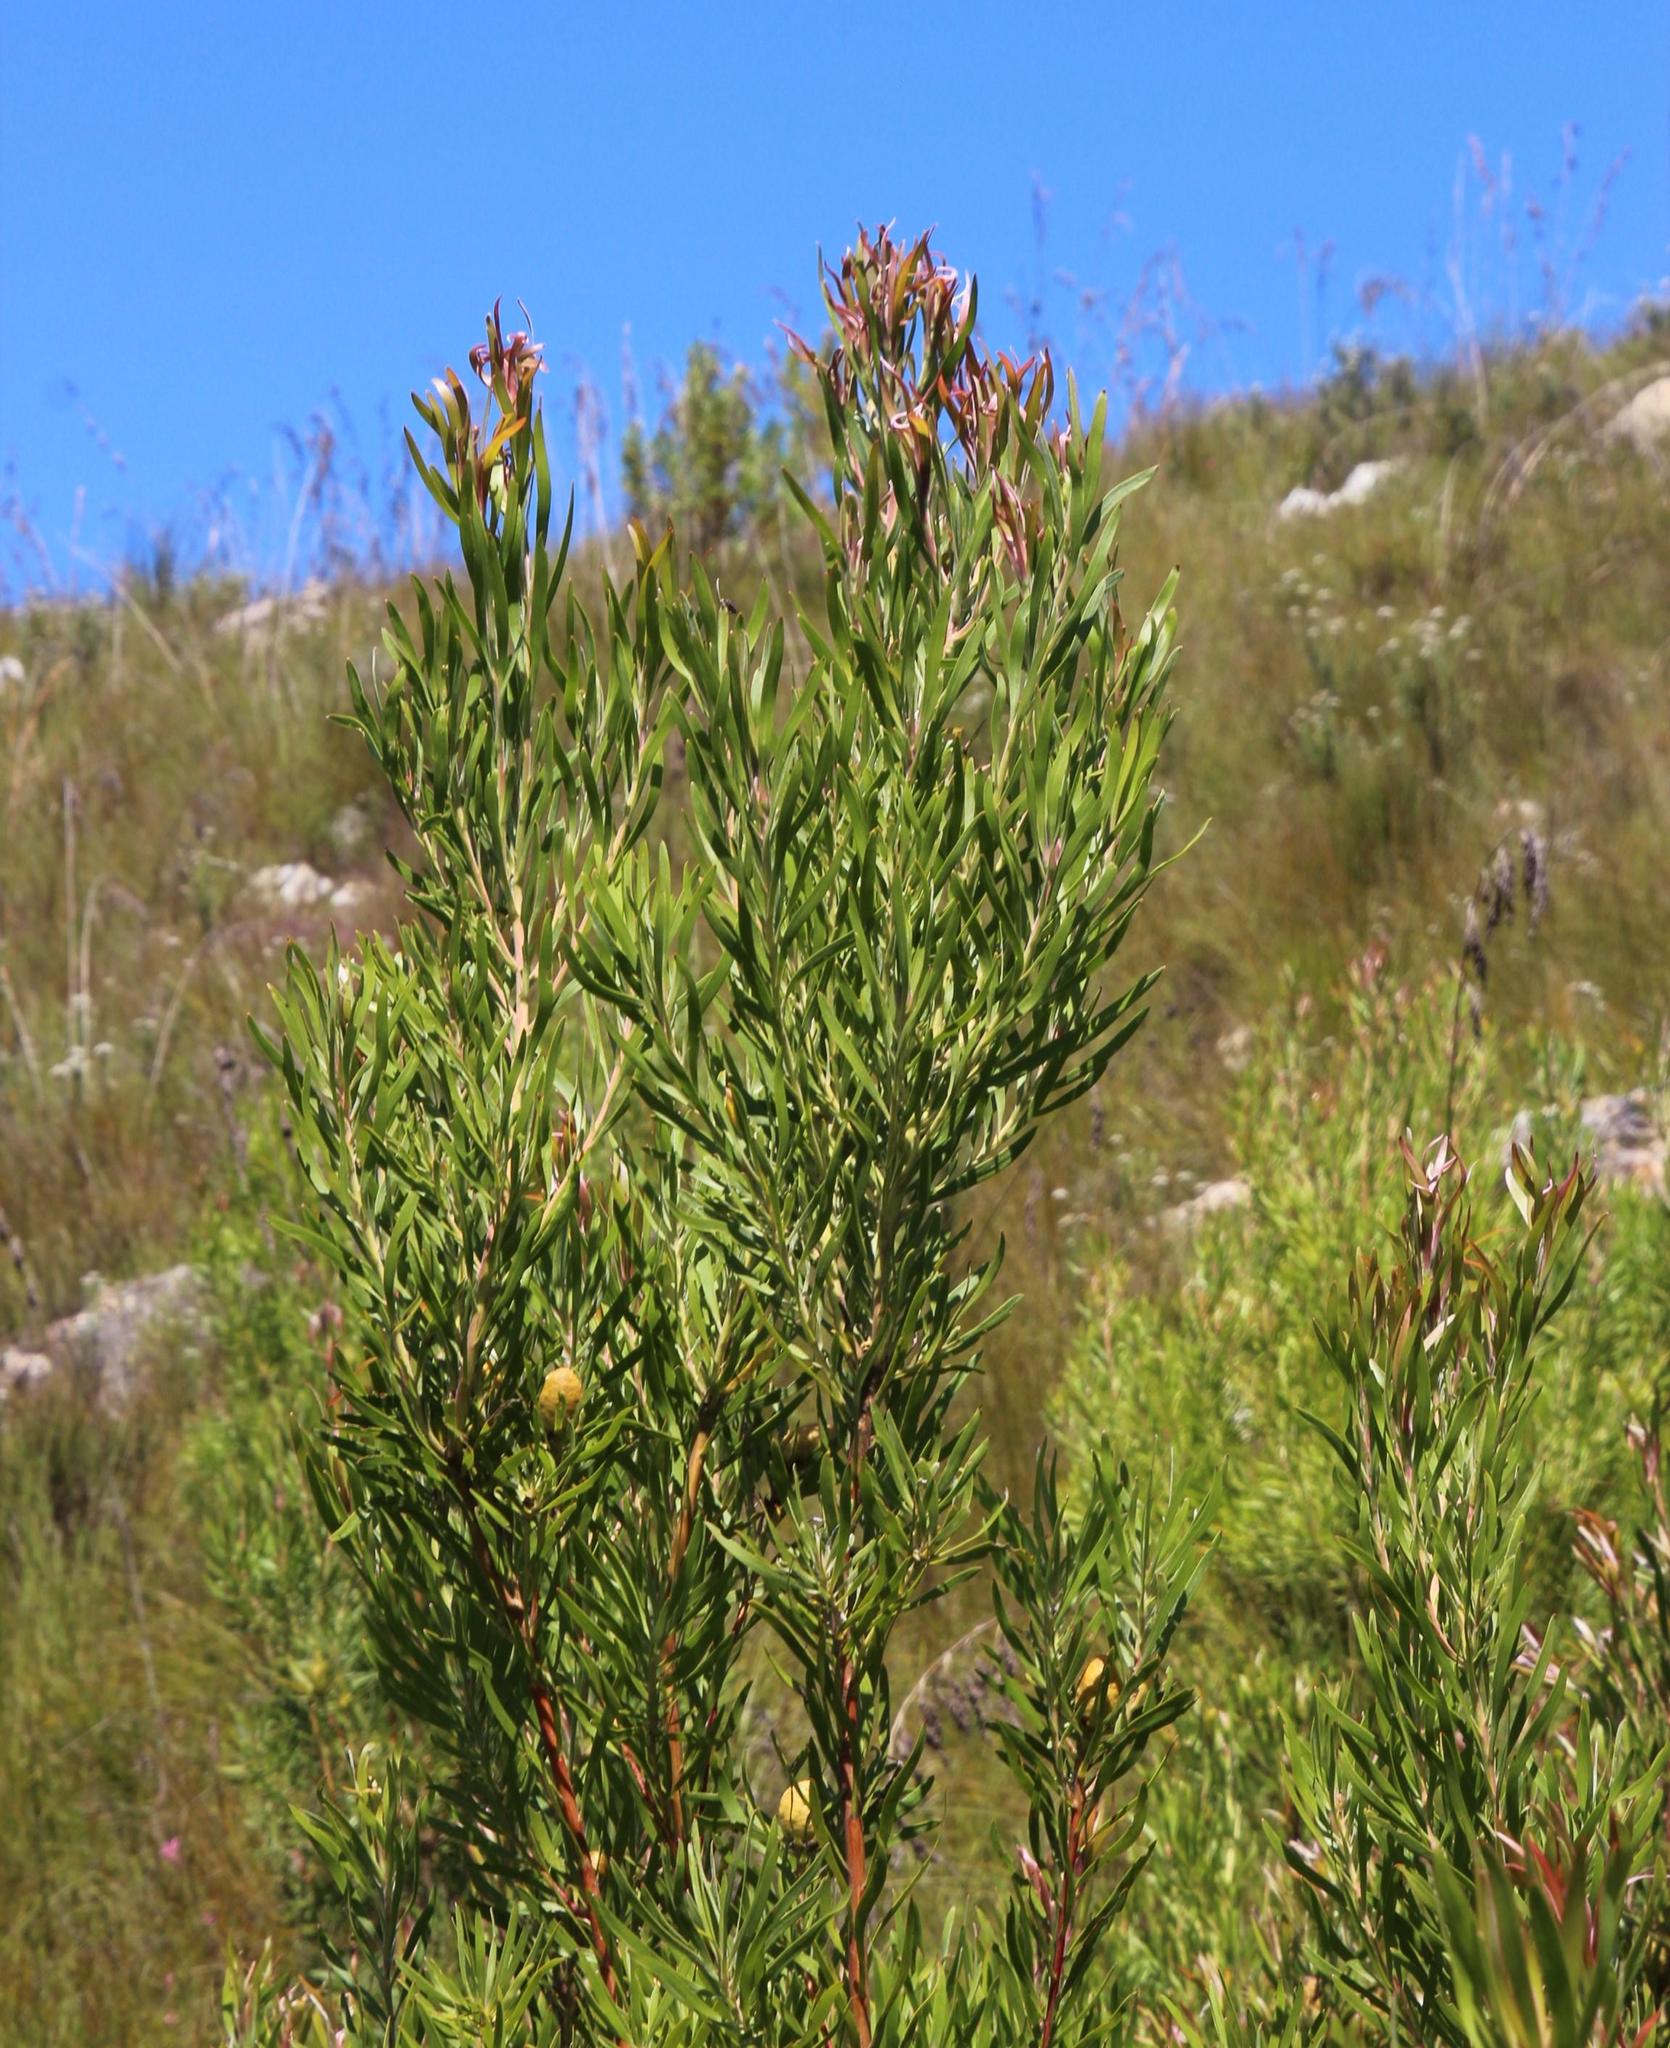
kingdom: Plantae
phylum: Tracheophyta
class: Magnoliopsida
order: Proteales
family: Proteaceae
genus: Leucadendron
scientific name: Leucadendron eucalyptifolium
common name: Gum-leaved conebush
